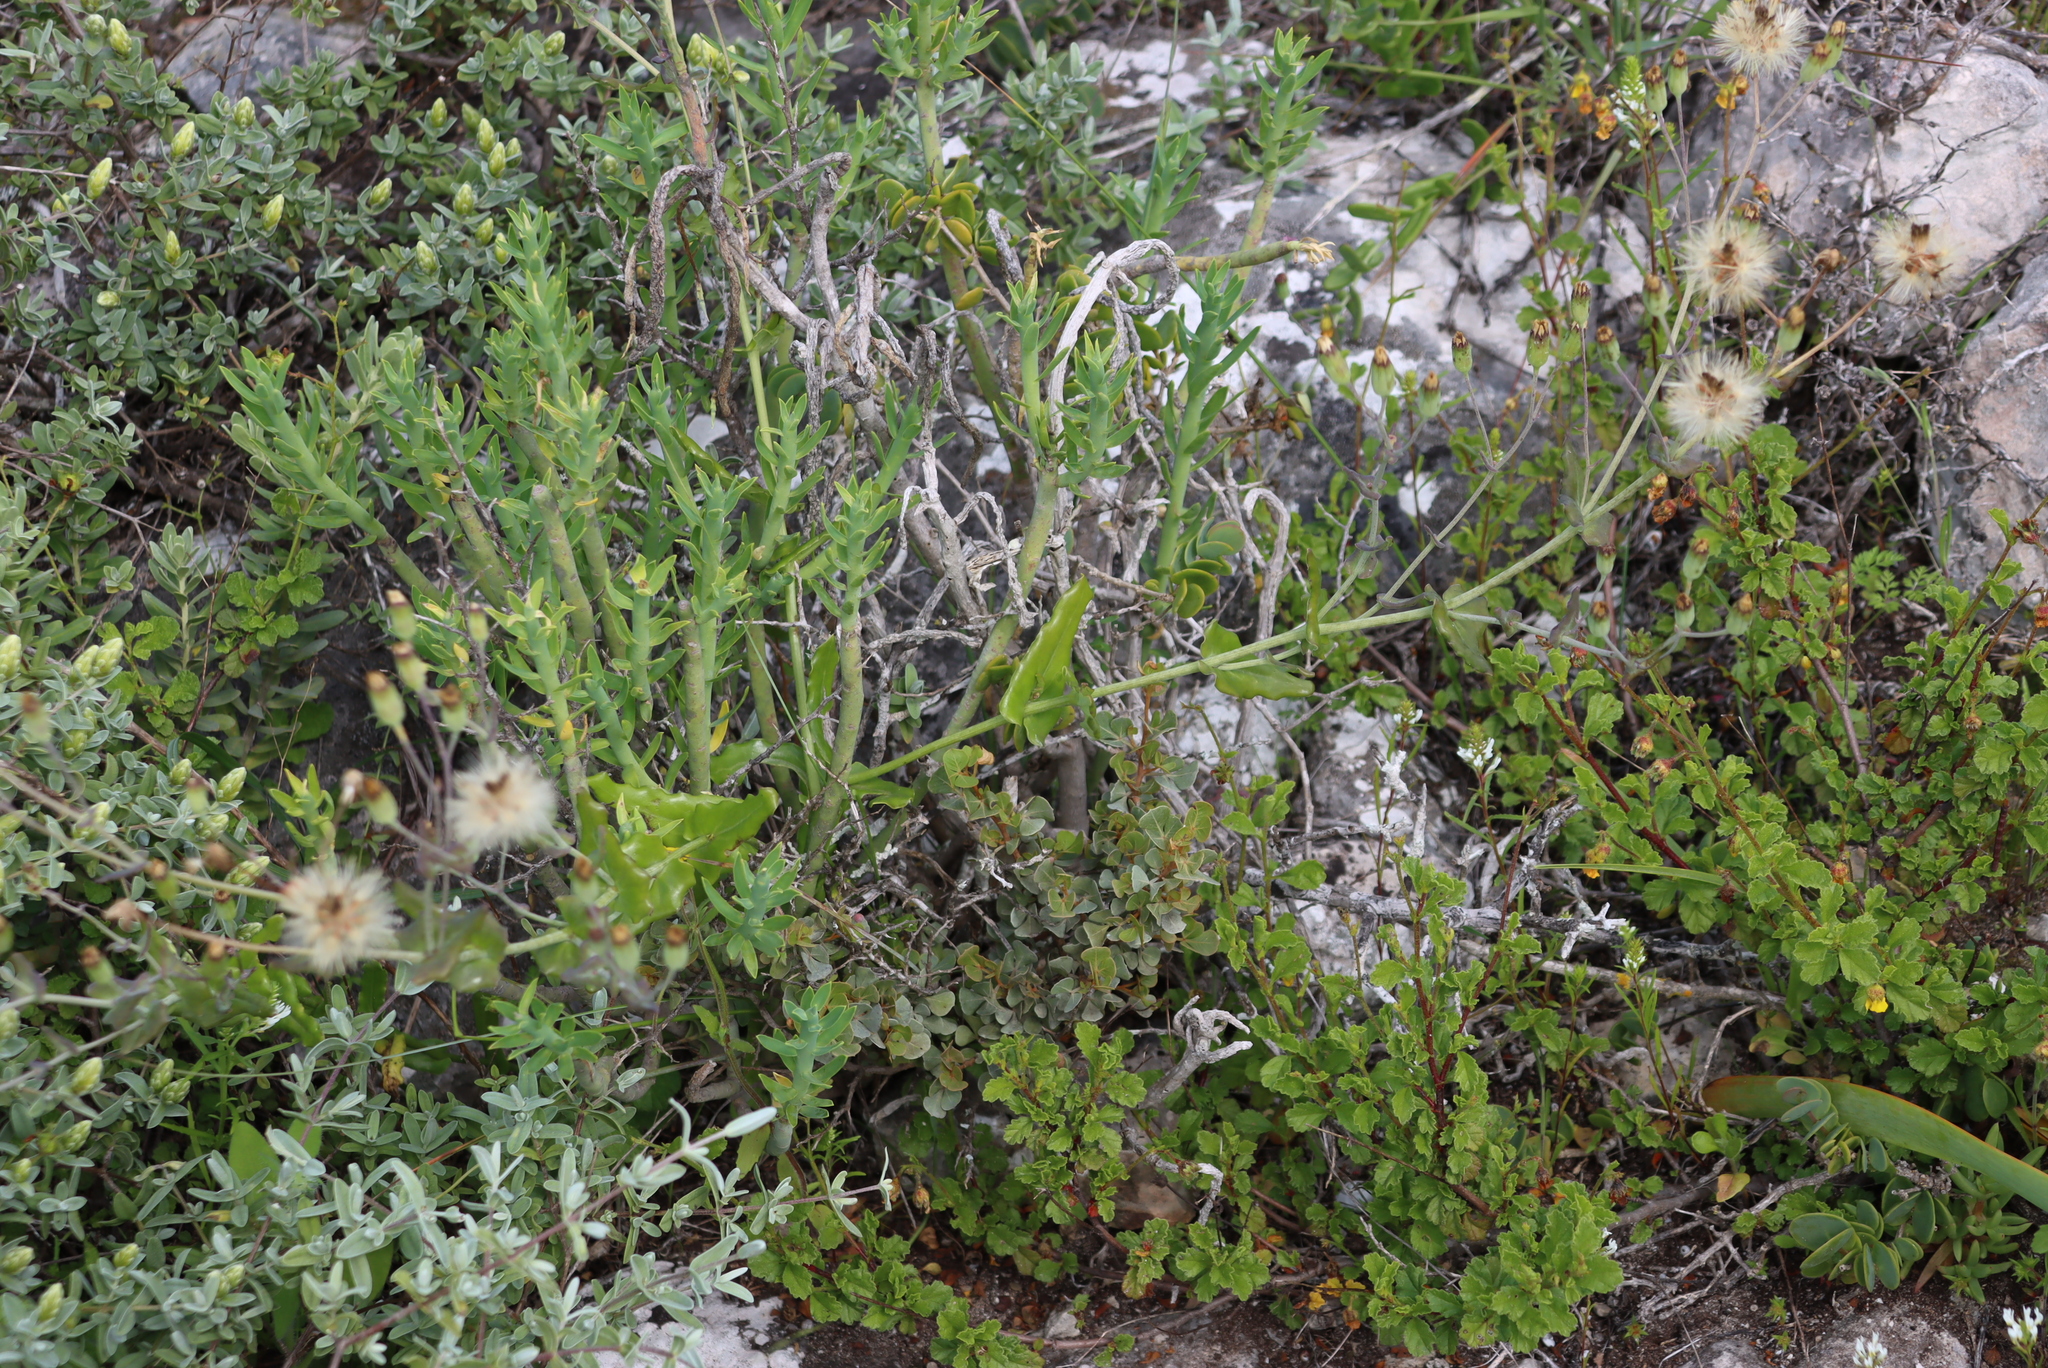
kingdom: Plantae
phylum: Tracheophyta
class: Magnoliopsida
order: Asterales
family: Asteraceae
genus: Othonna
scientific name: Othonna undulosa
